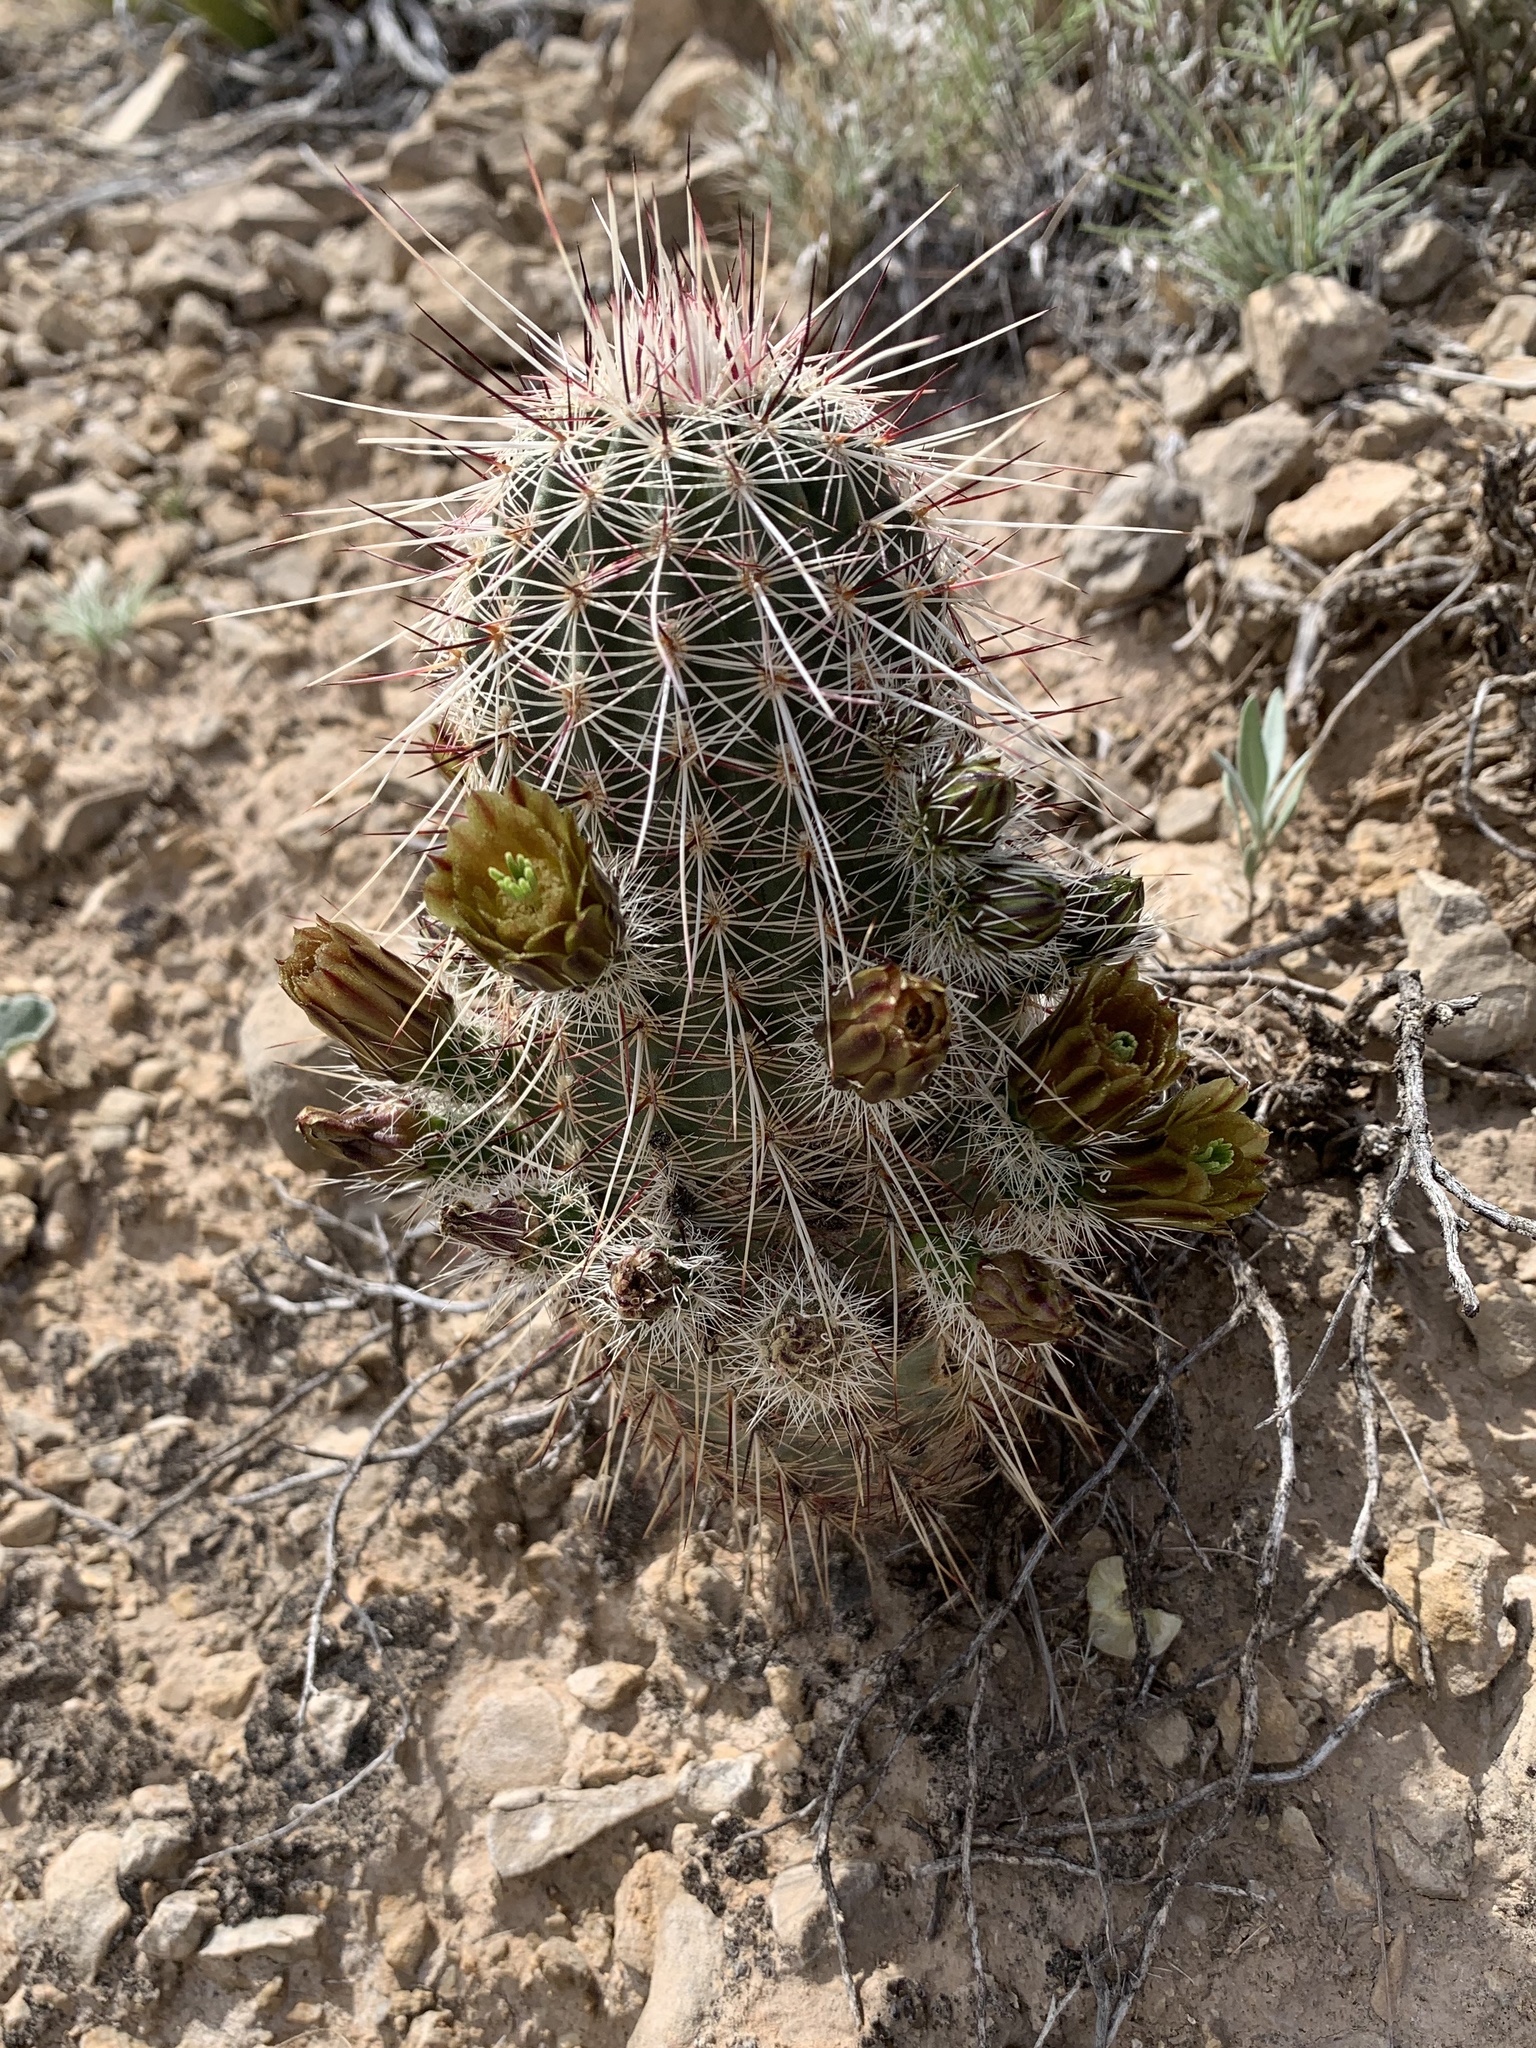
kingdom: Plantae
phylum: Tracheophyta
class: Magnoliopsida
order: Caryophyllales
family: Cactaceae
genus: Echinocereus
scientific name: Echinocereus viridiflorus
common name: Nylon hedgehog cactus
